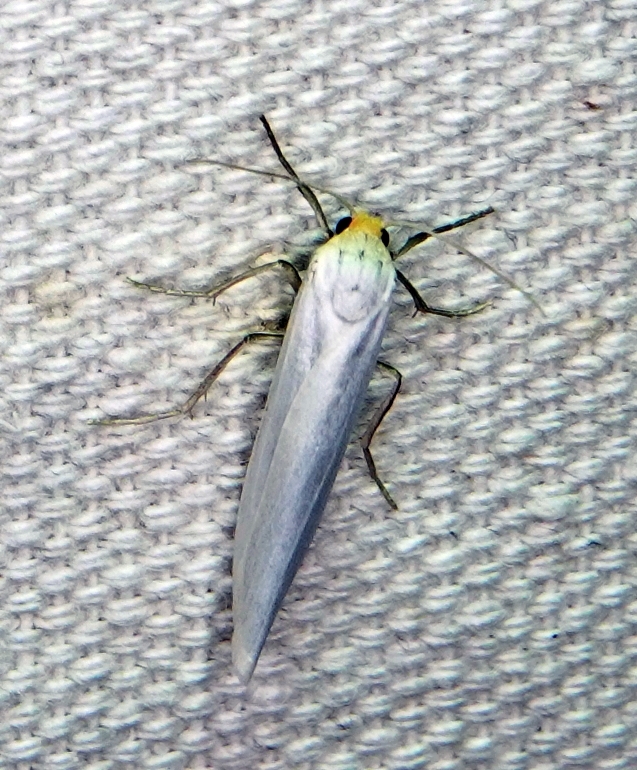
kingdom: Animalia
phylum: Arthropoda
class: Insecta
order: Lepidoptera
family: Erebidae
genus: Crambidia
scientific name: Crambidia cephalica
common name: Yellow-headed lichen moth
